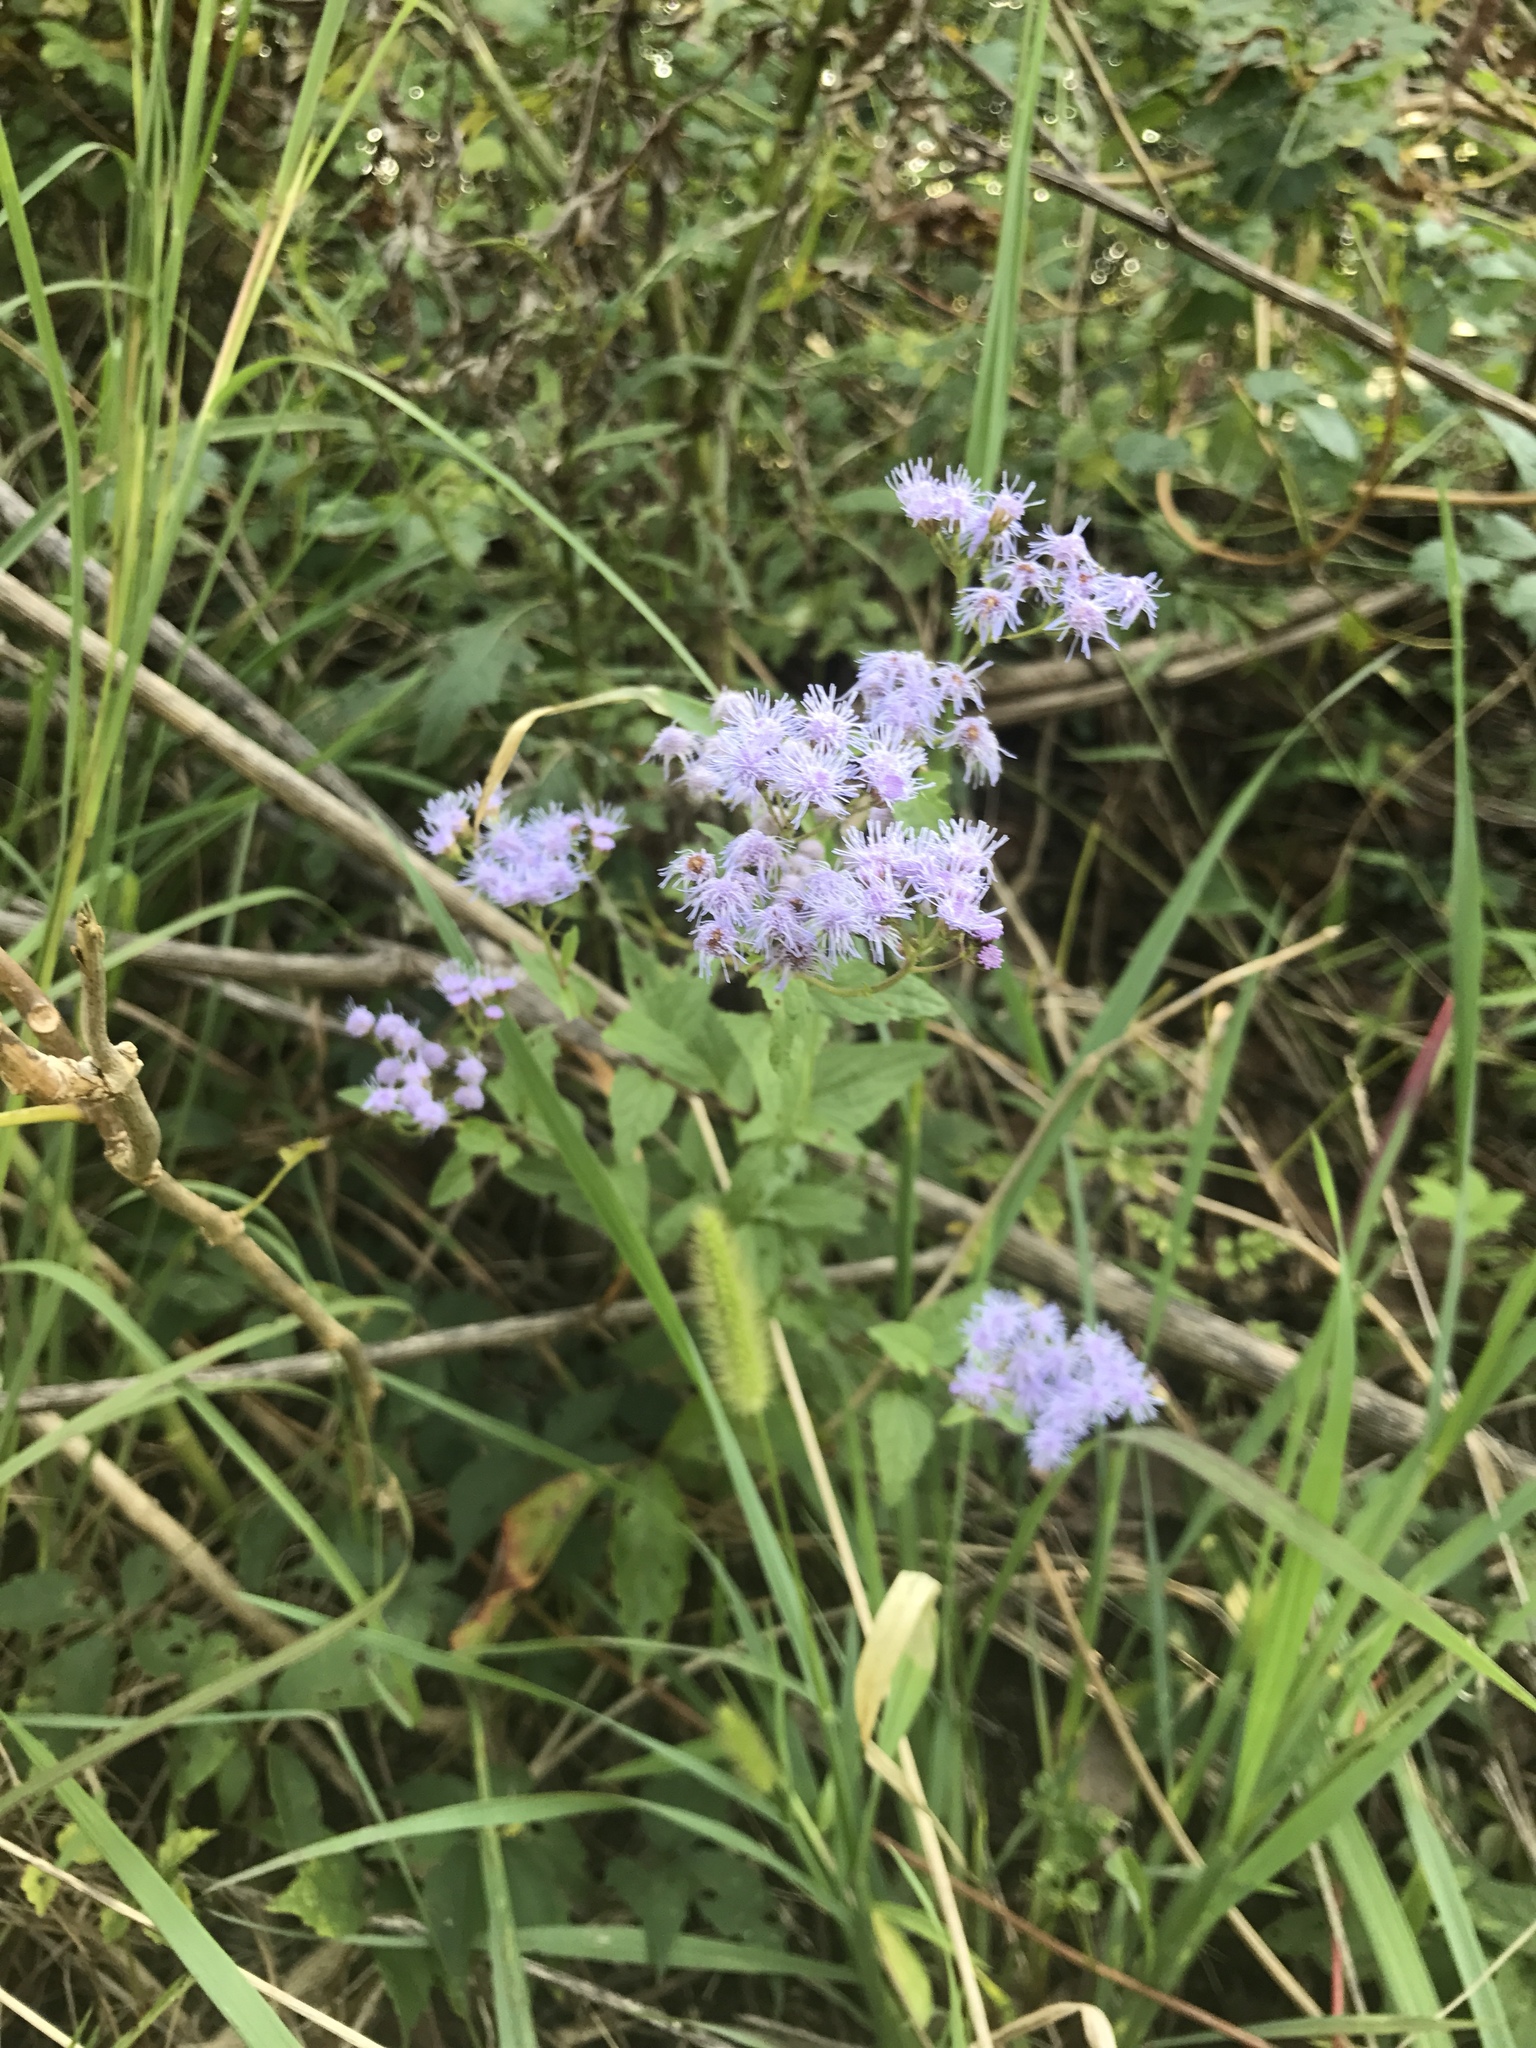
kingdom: Plantae
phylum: Tracheophyta
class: Magnoliopsida
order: Asterales
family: Asteraceae
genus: Conoclinium
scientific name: Conoclinium coelestinum
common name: Blue mistflower
